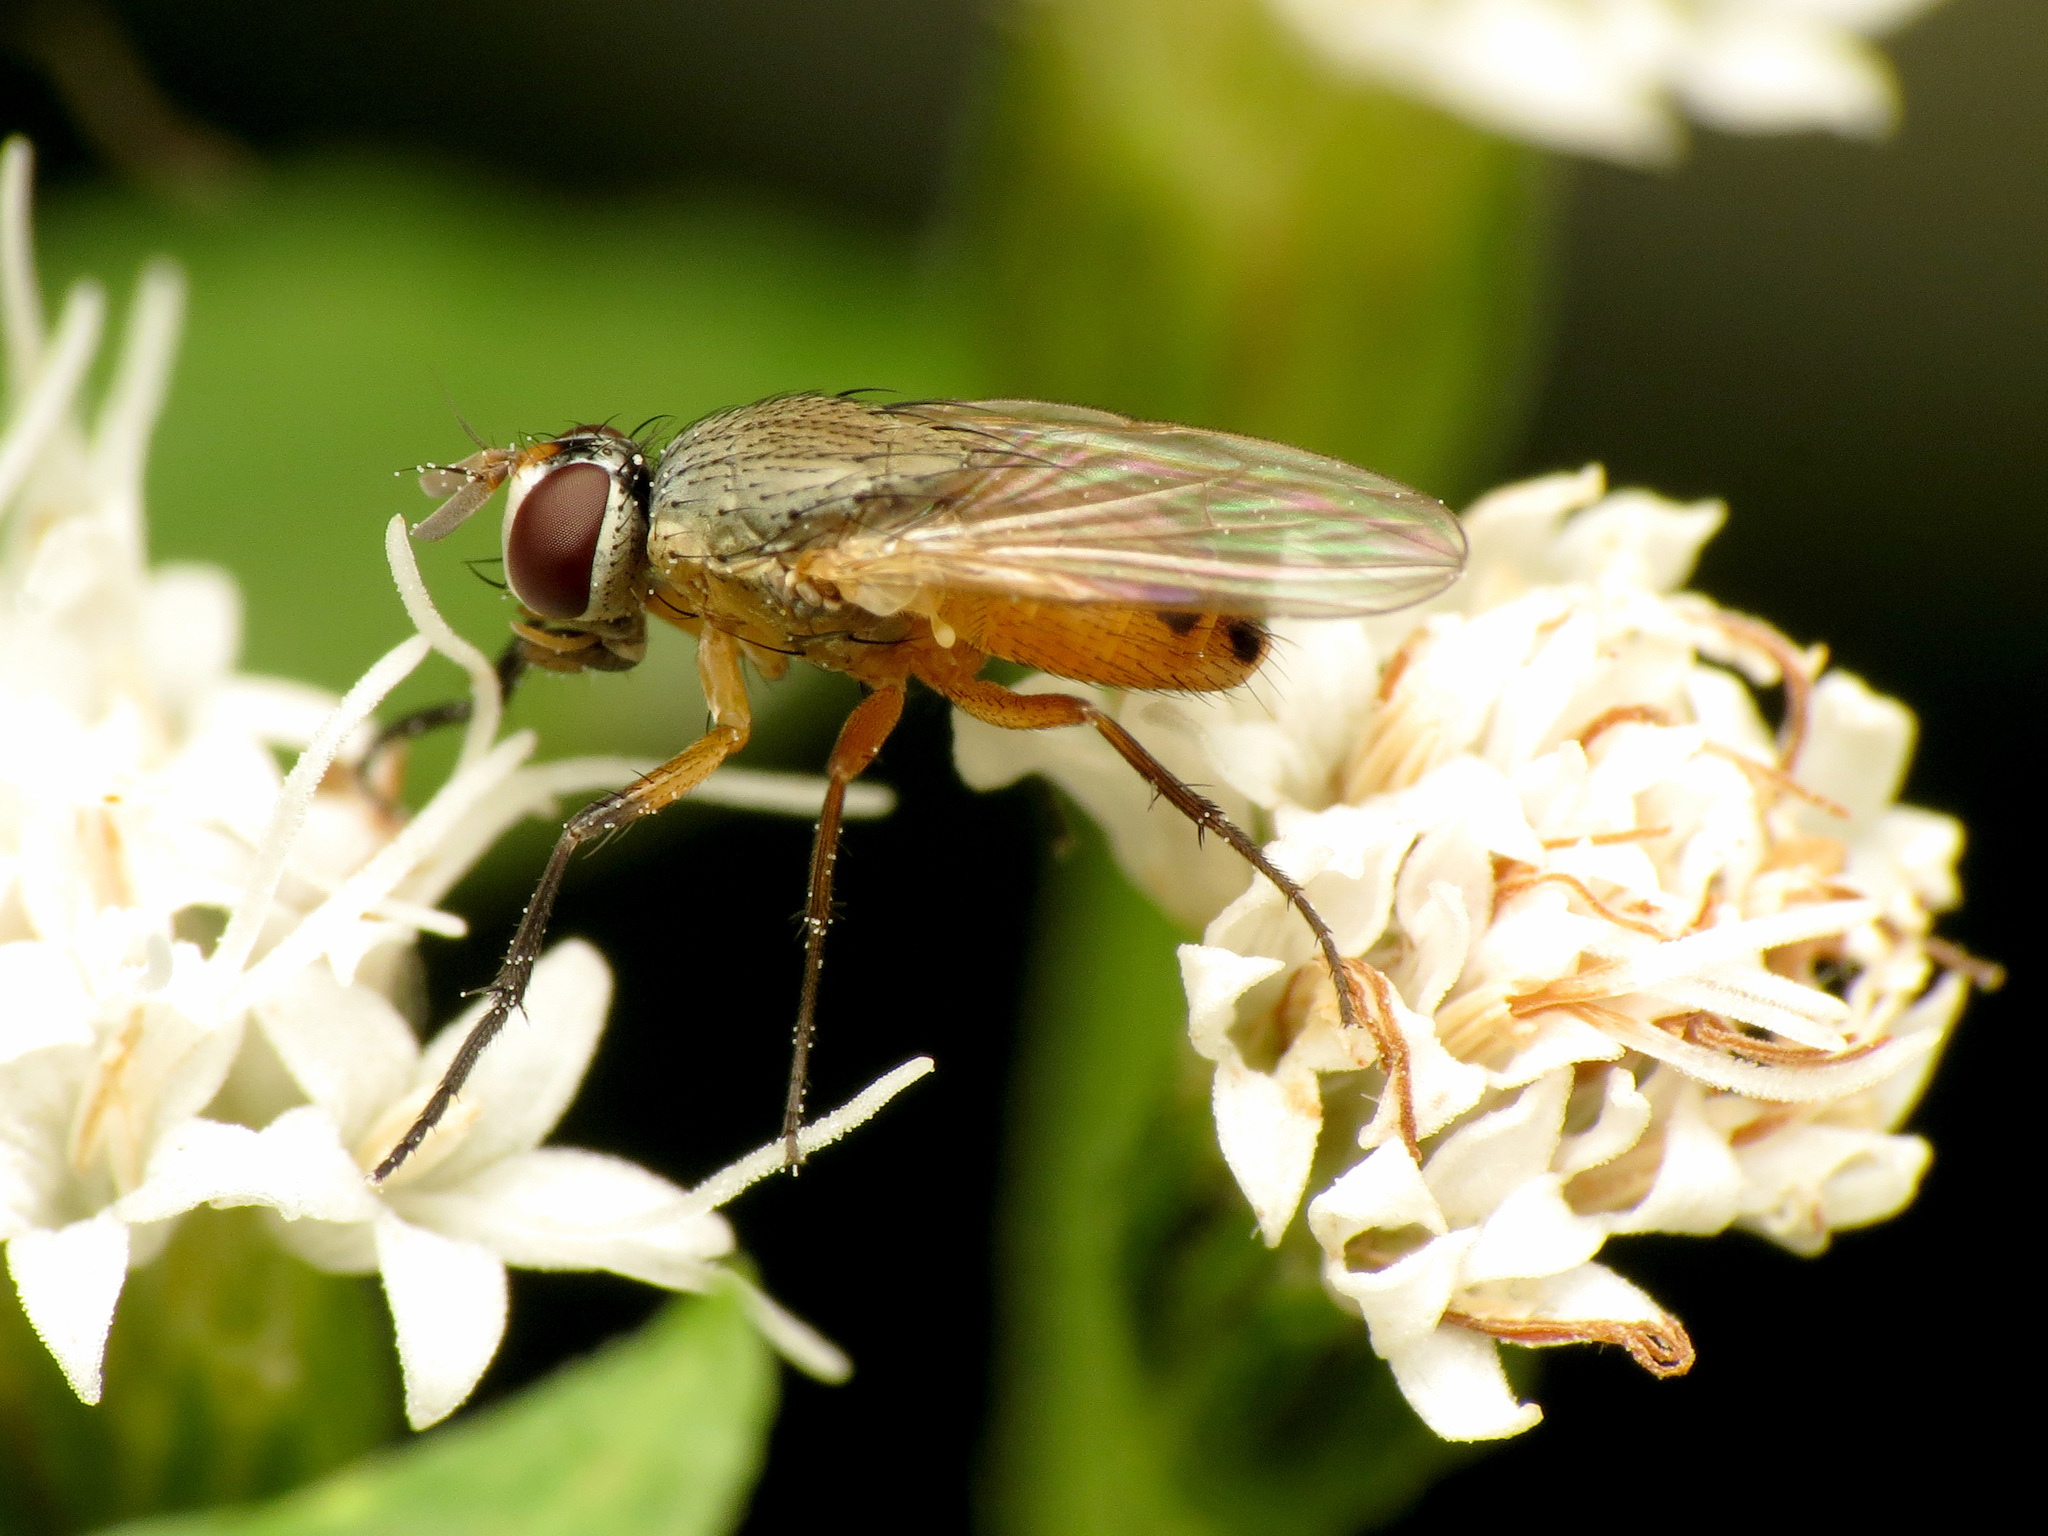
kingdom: Animalia
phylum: Arthropoda
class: Insecta
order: Diptera
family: Muscidae
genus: Atherigona
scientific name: Atherigona reversura
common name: Bermudagrass stem maggot
